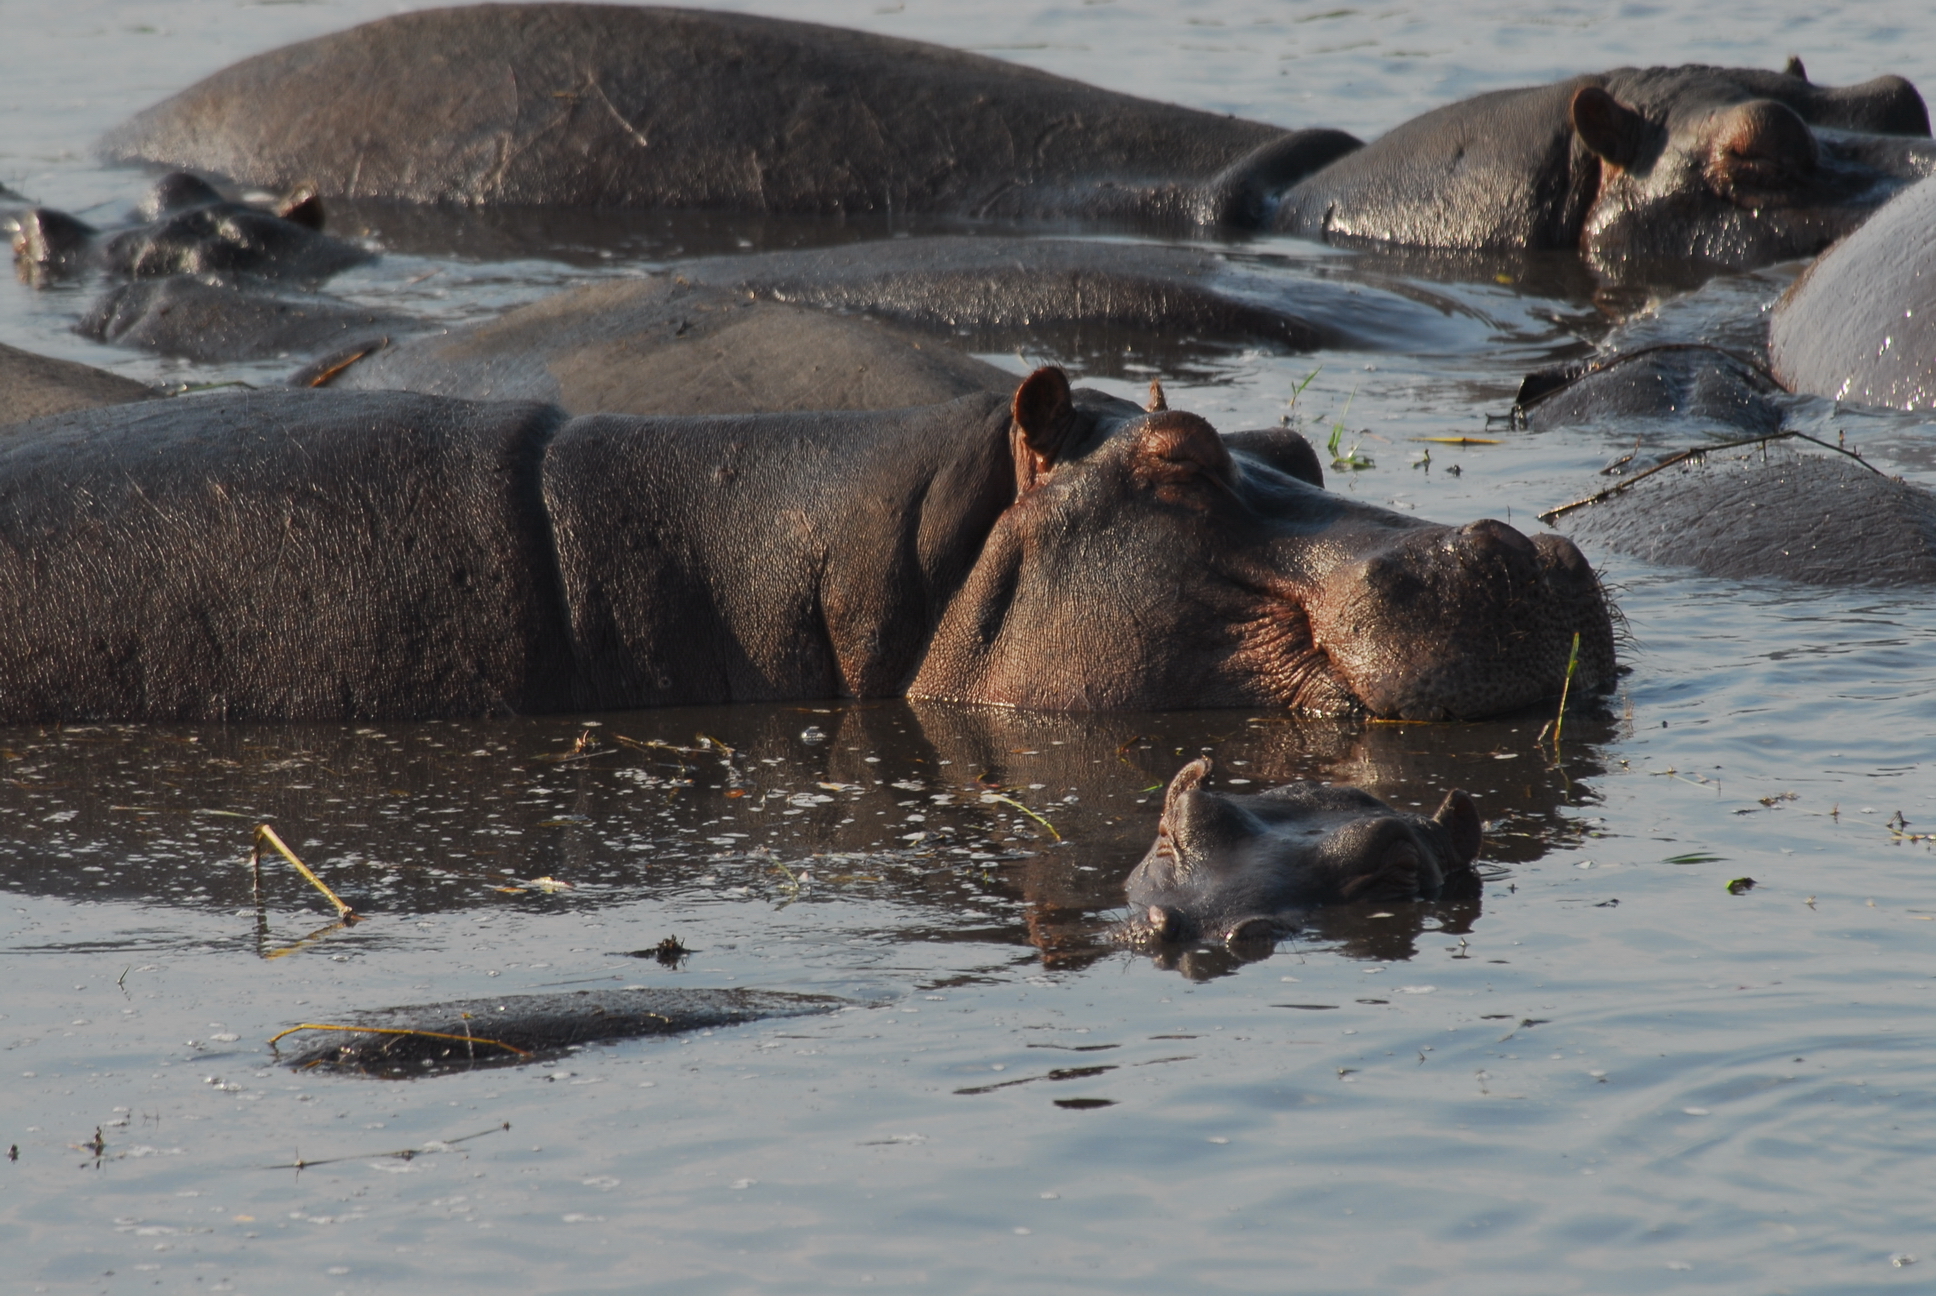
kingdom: Animalia
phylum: Chordata
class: Mammalia
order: Artiodactyla
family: Hippopotamidae
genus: Hippopotamus
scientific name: Hippopotamus amphibius
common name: Common hippopotamus
